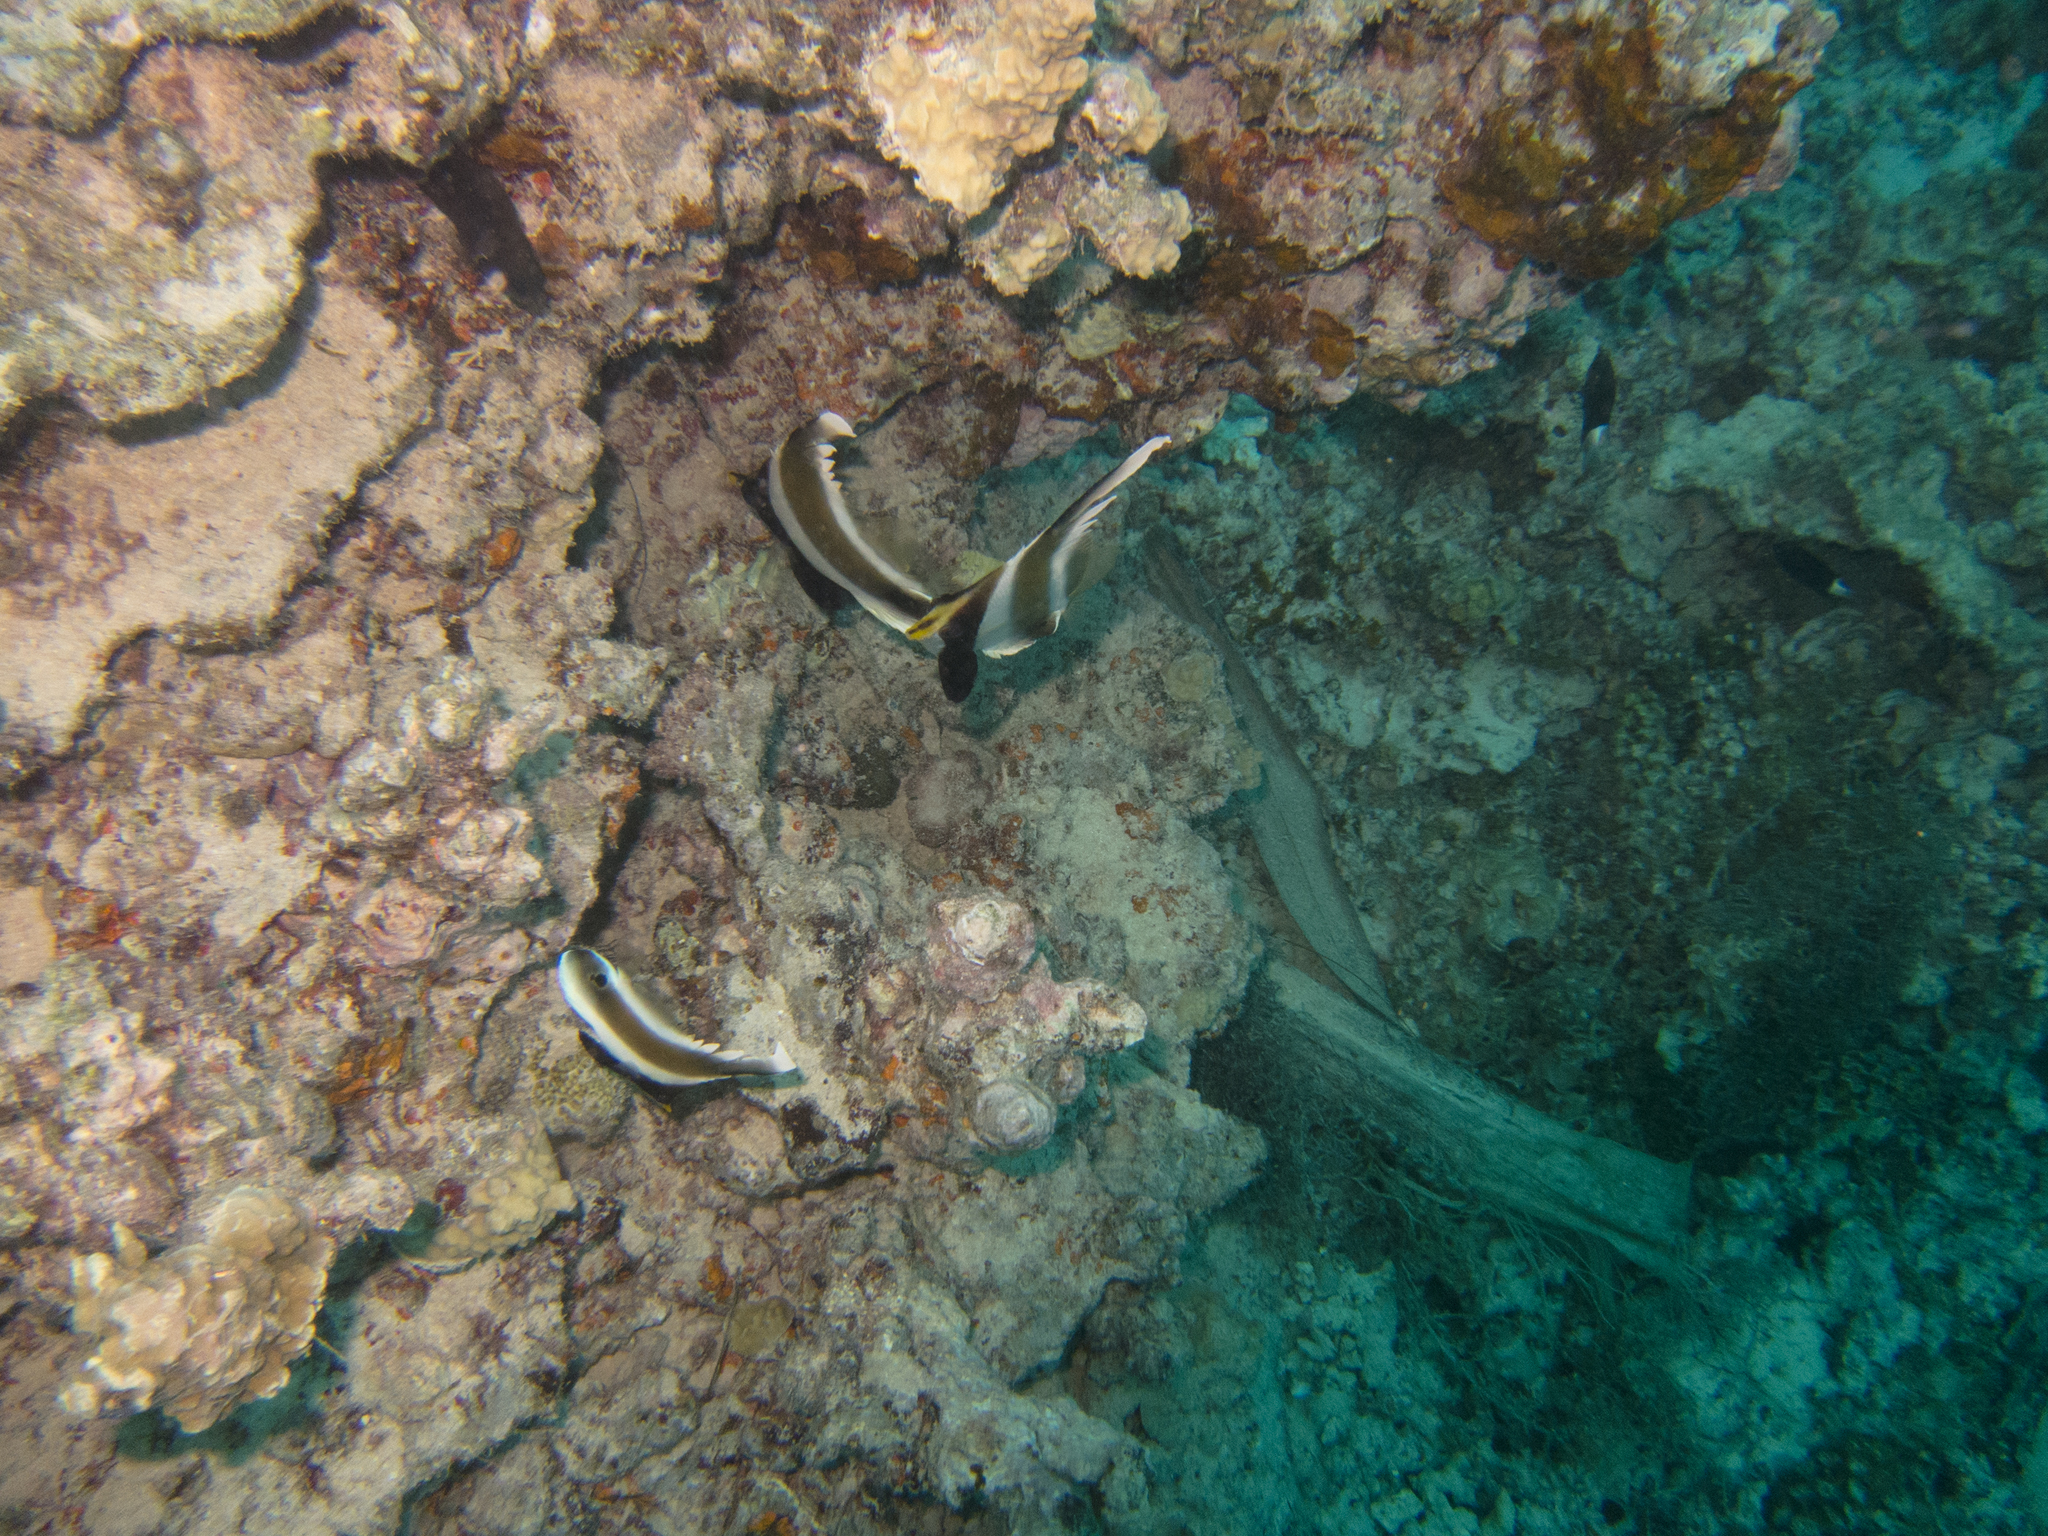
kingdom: Animalia
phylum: Chordata
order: Perciformes
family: Chaetodontidae
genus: Heniochus
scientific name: Heniochus chrysostomus
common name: Horned bannerfish
